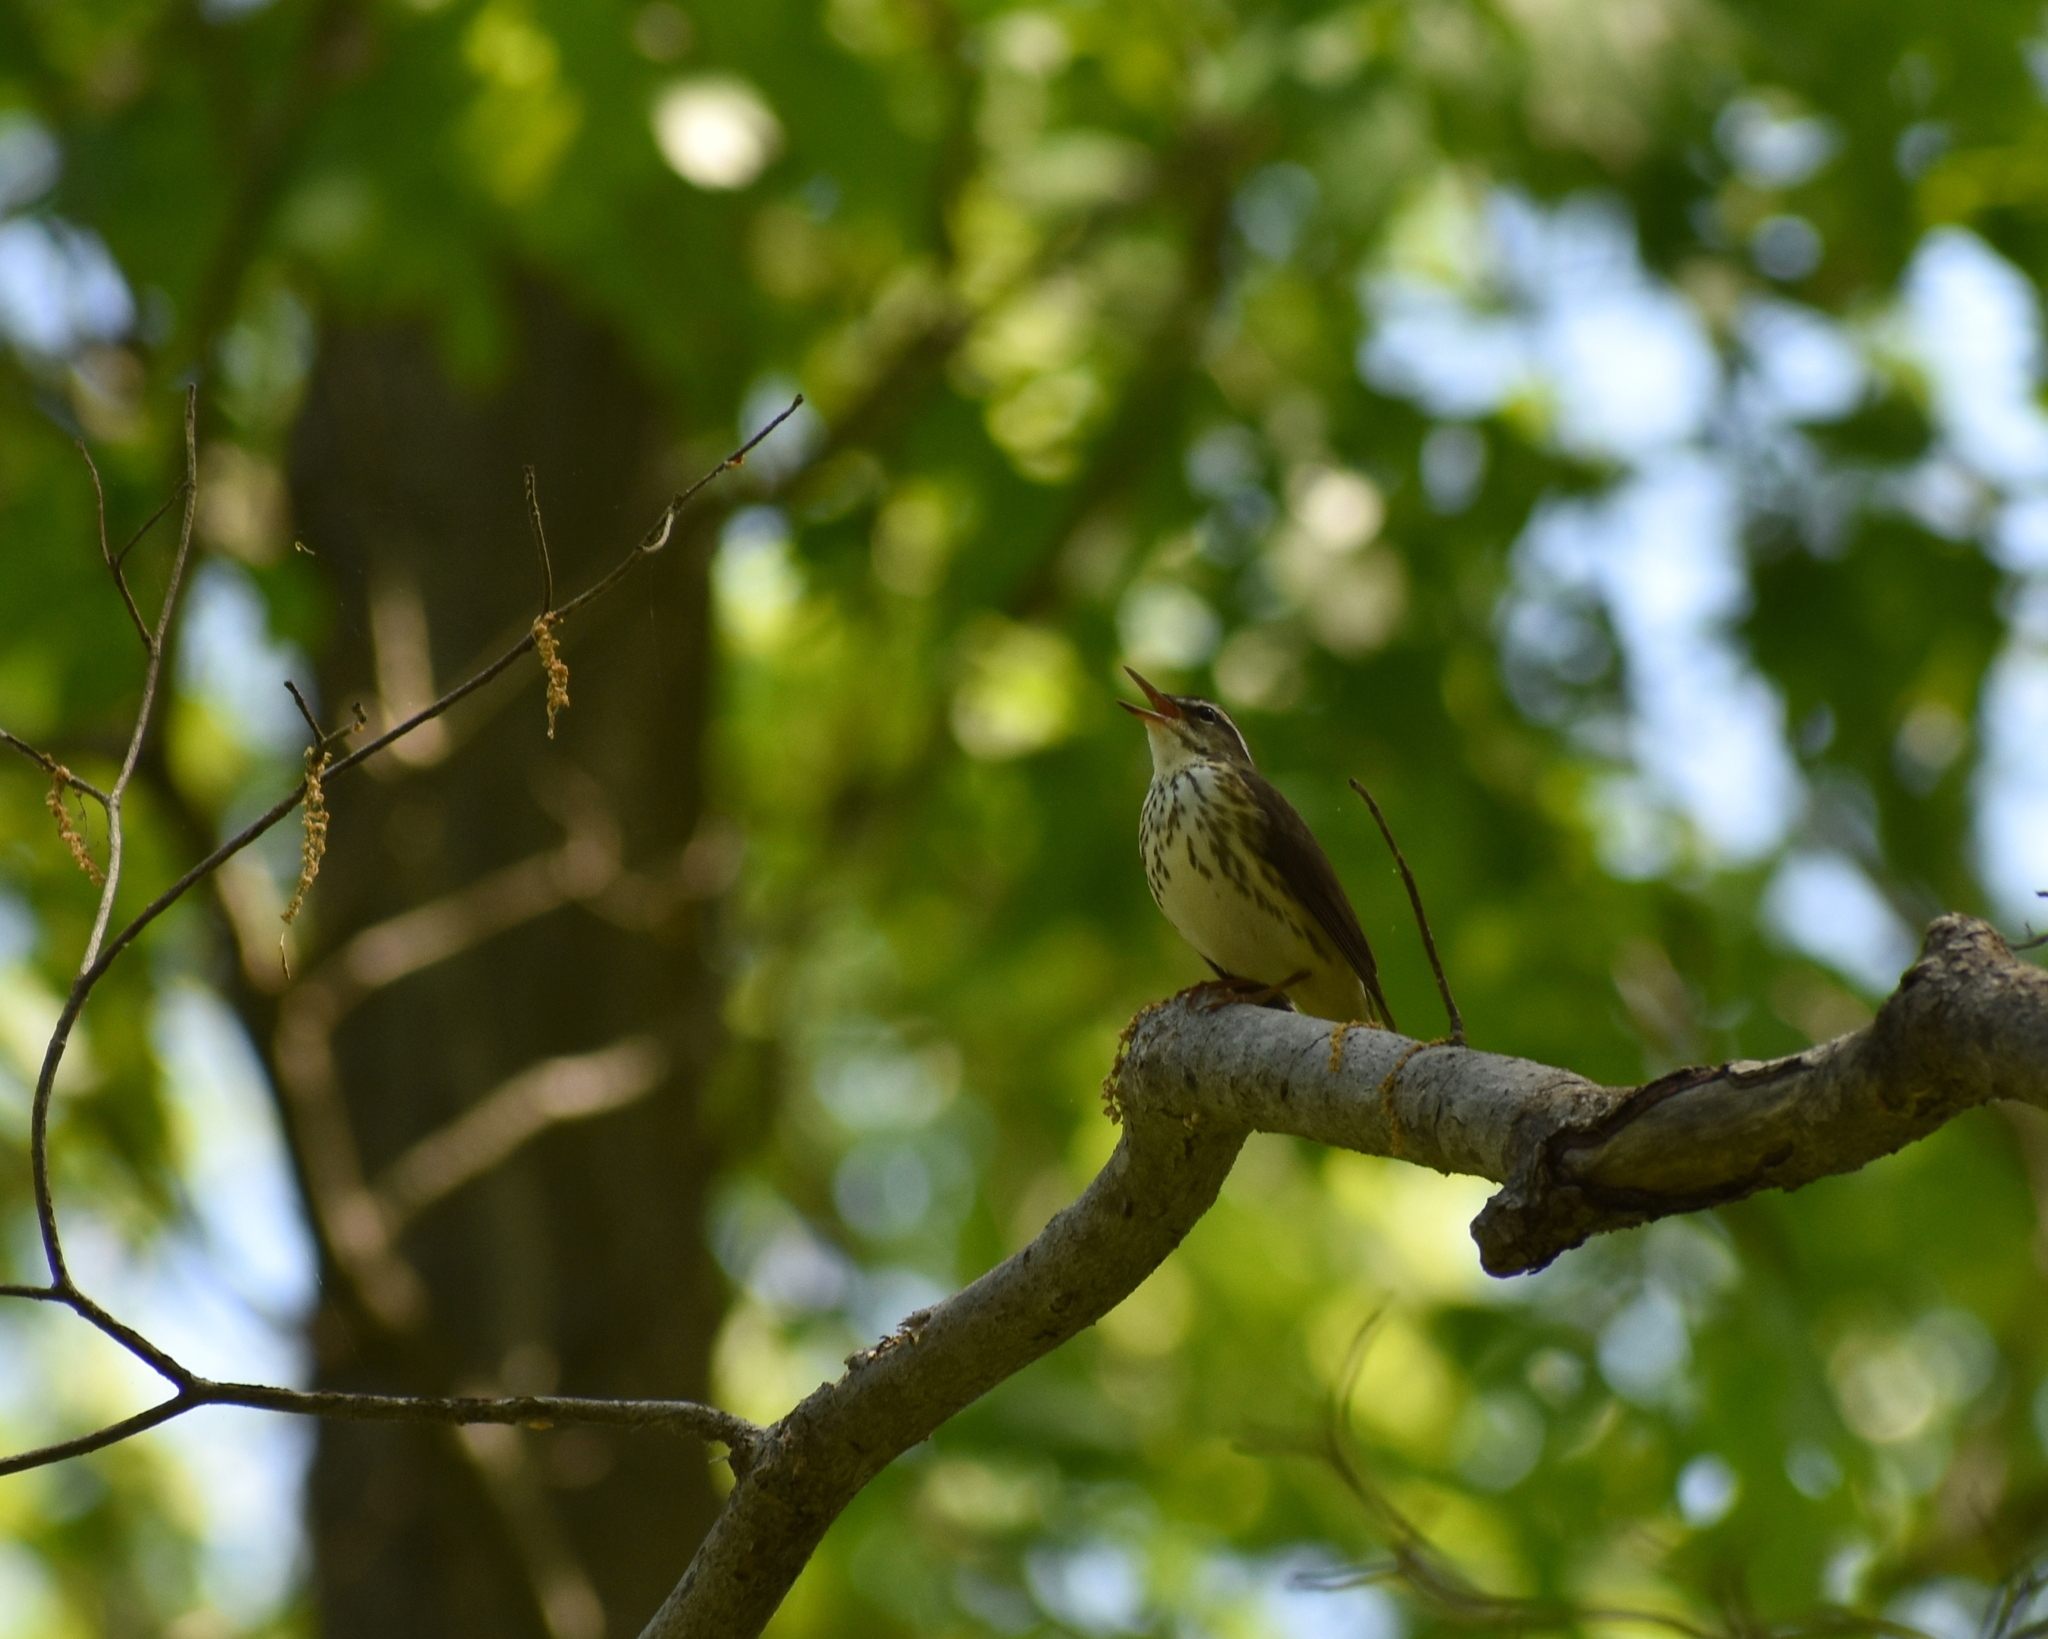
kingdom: Animalia
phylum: Chordata
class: Aves
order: Passeriformes
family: Parulidae
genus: Parkesia
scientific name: Parkesia motacilla
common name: Louisiana waterthrush
